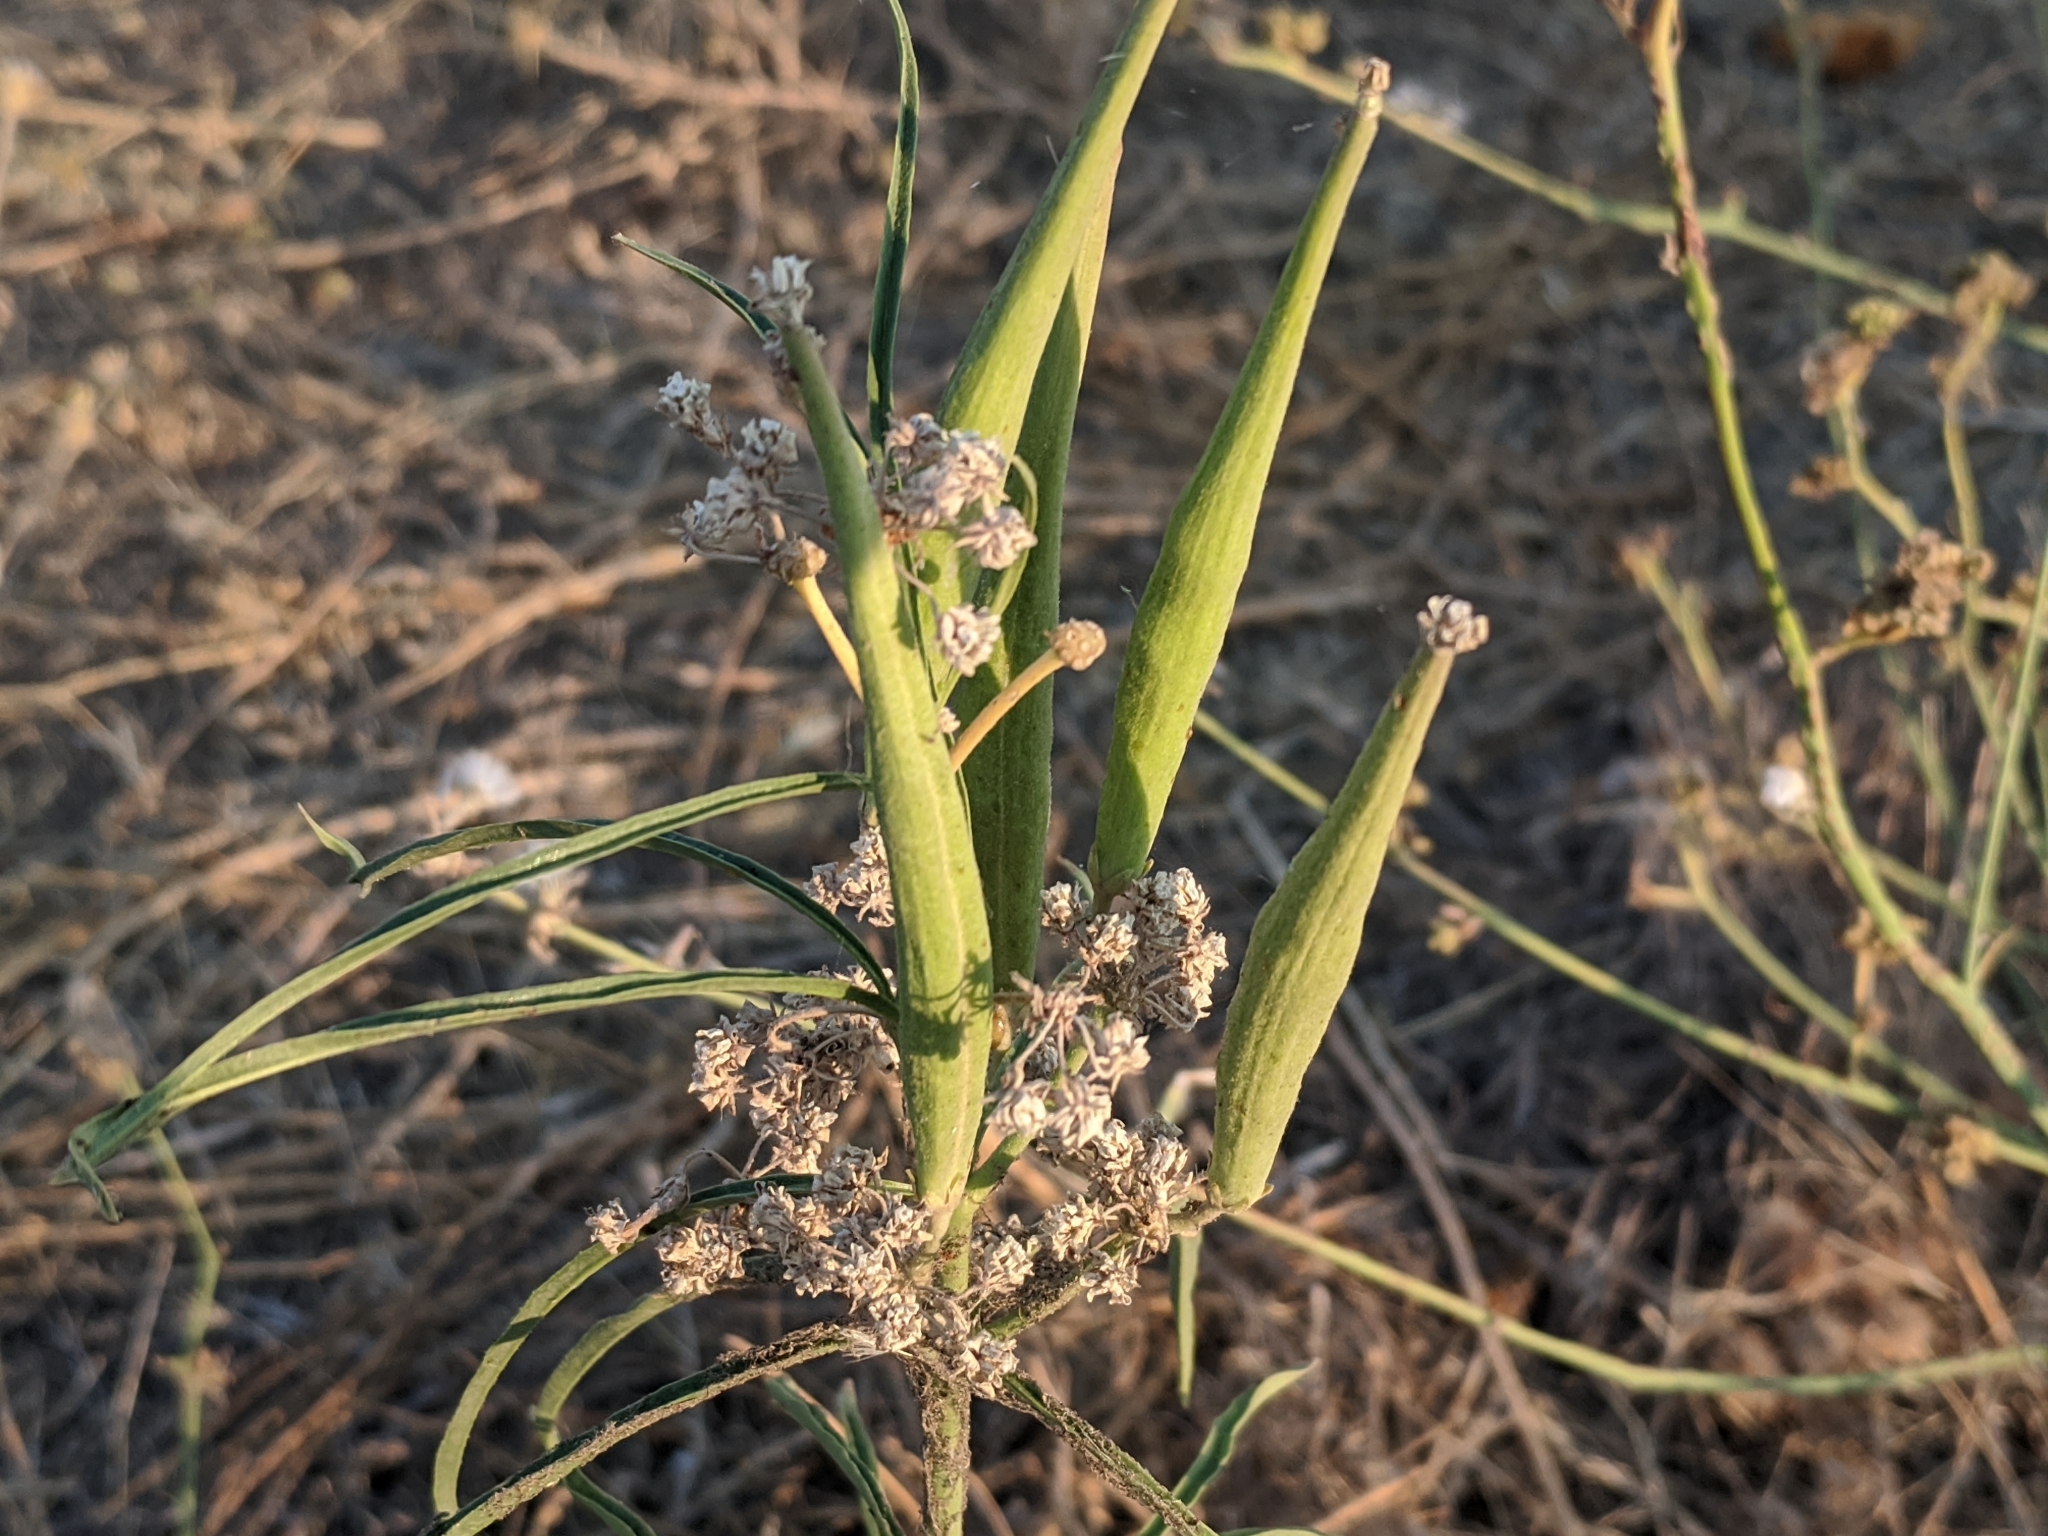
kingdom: Plantae
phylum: Tracheophyta
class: Magnoliopsida
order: Gentianales
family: Apocynaceae
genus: Asclepias
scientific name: Asclepias fascicularis
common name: Mexican milkweed
